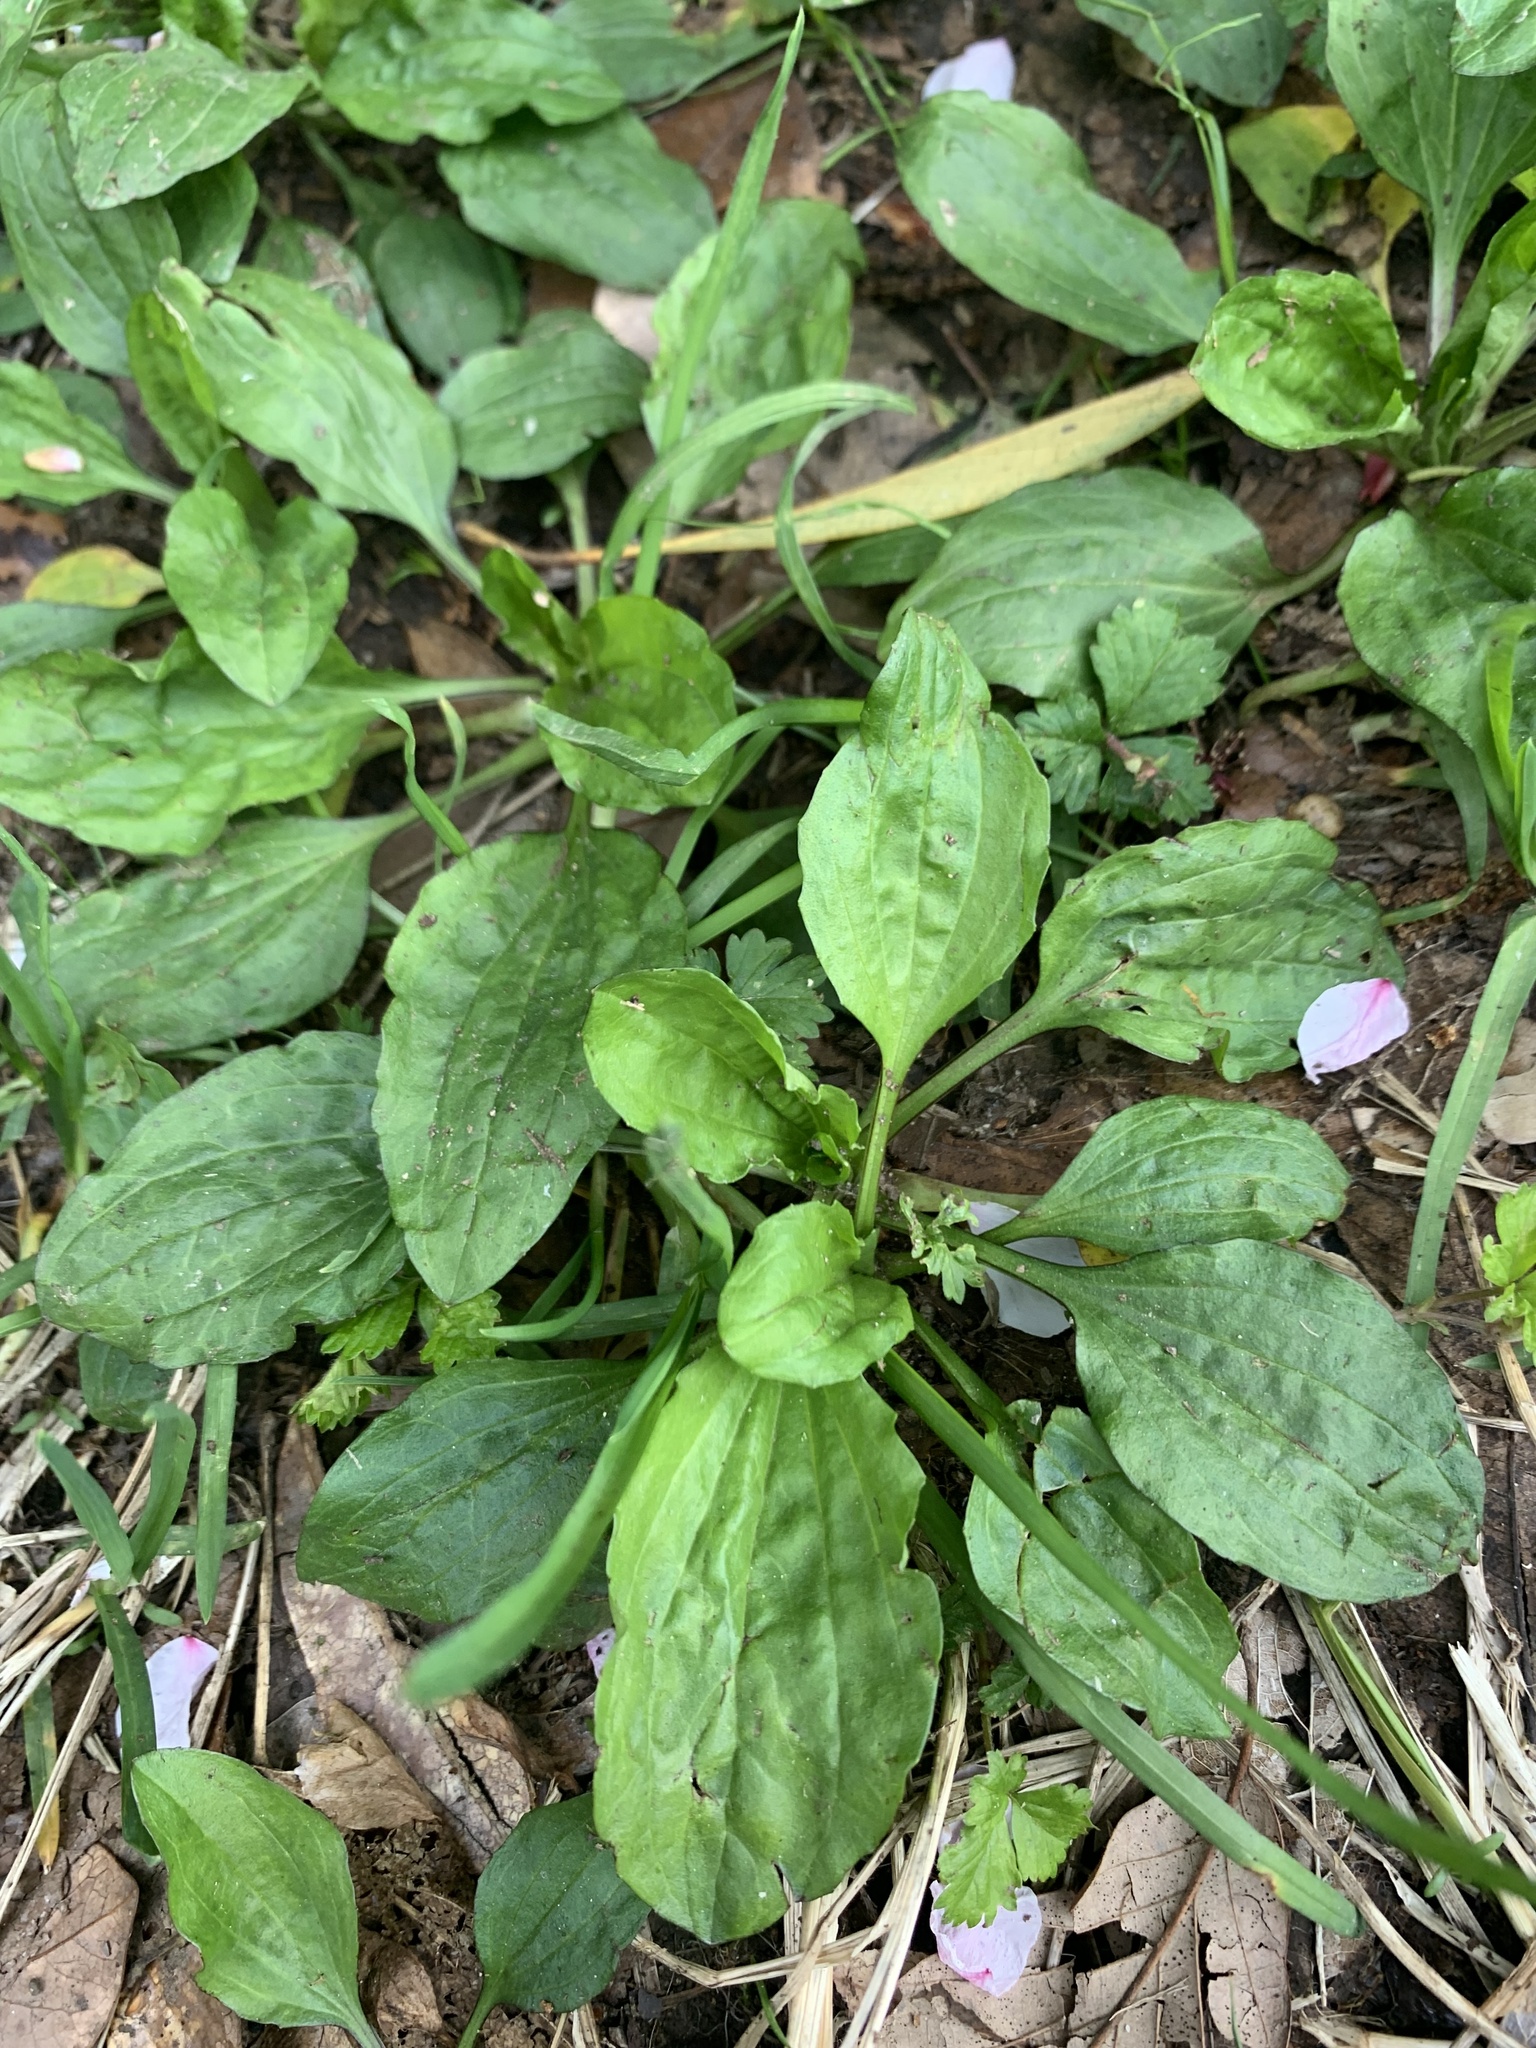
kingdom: Plantae
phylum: Tracheophyta
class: Magnoliopsida
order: Lamiales
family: Plantaginaceae
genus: Plantago
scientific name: Plantago asiatica
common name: Psyllium
